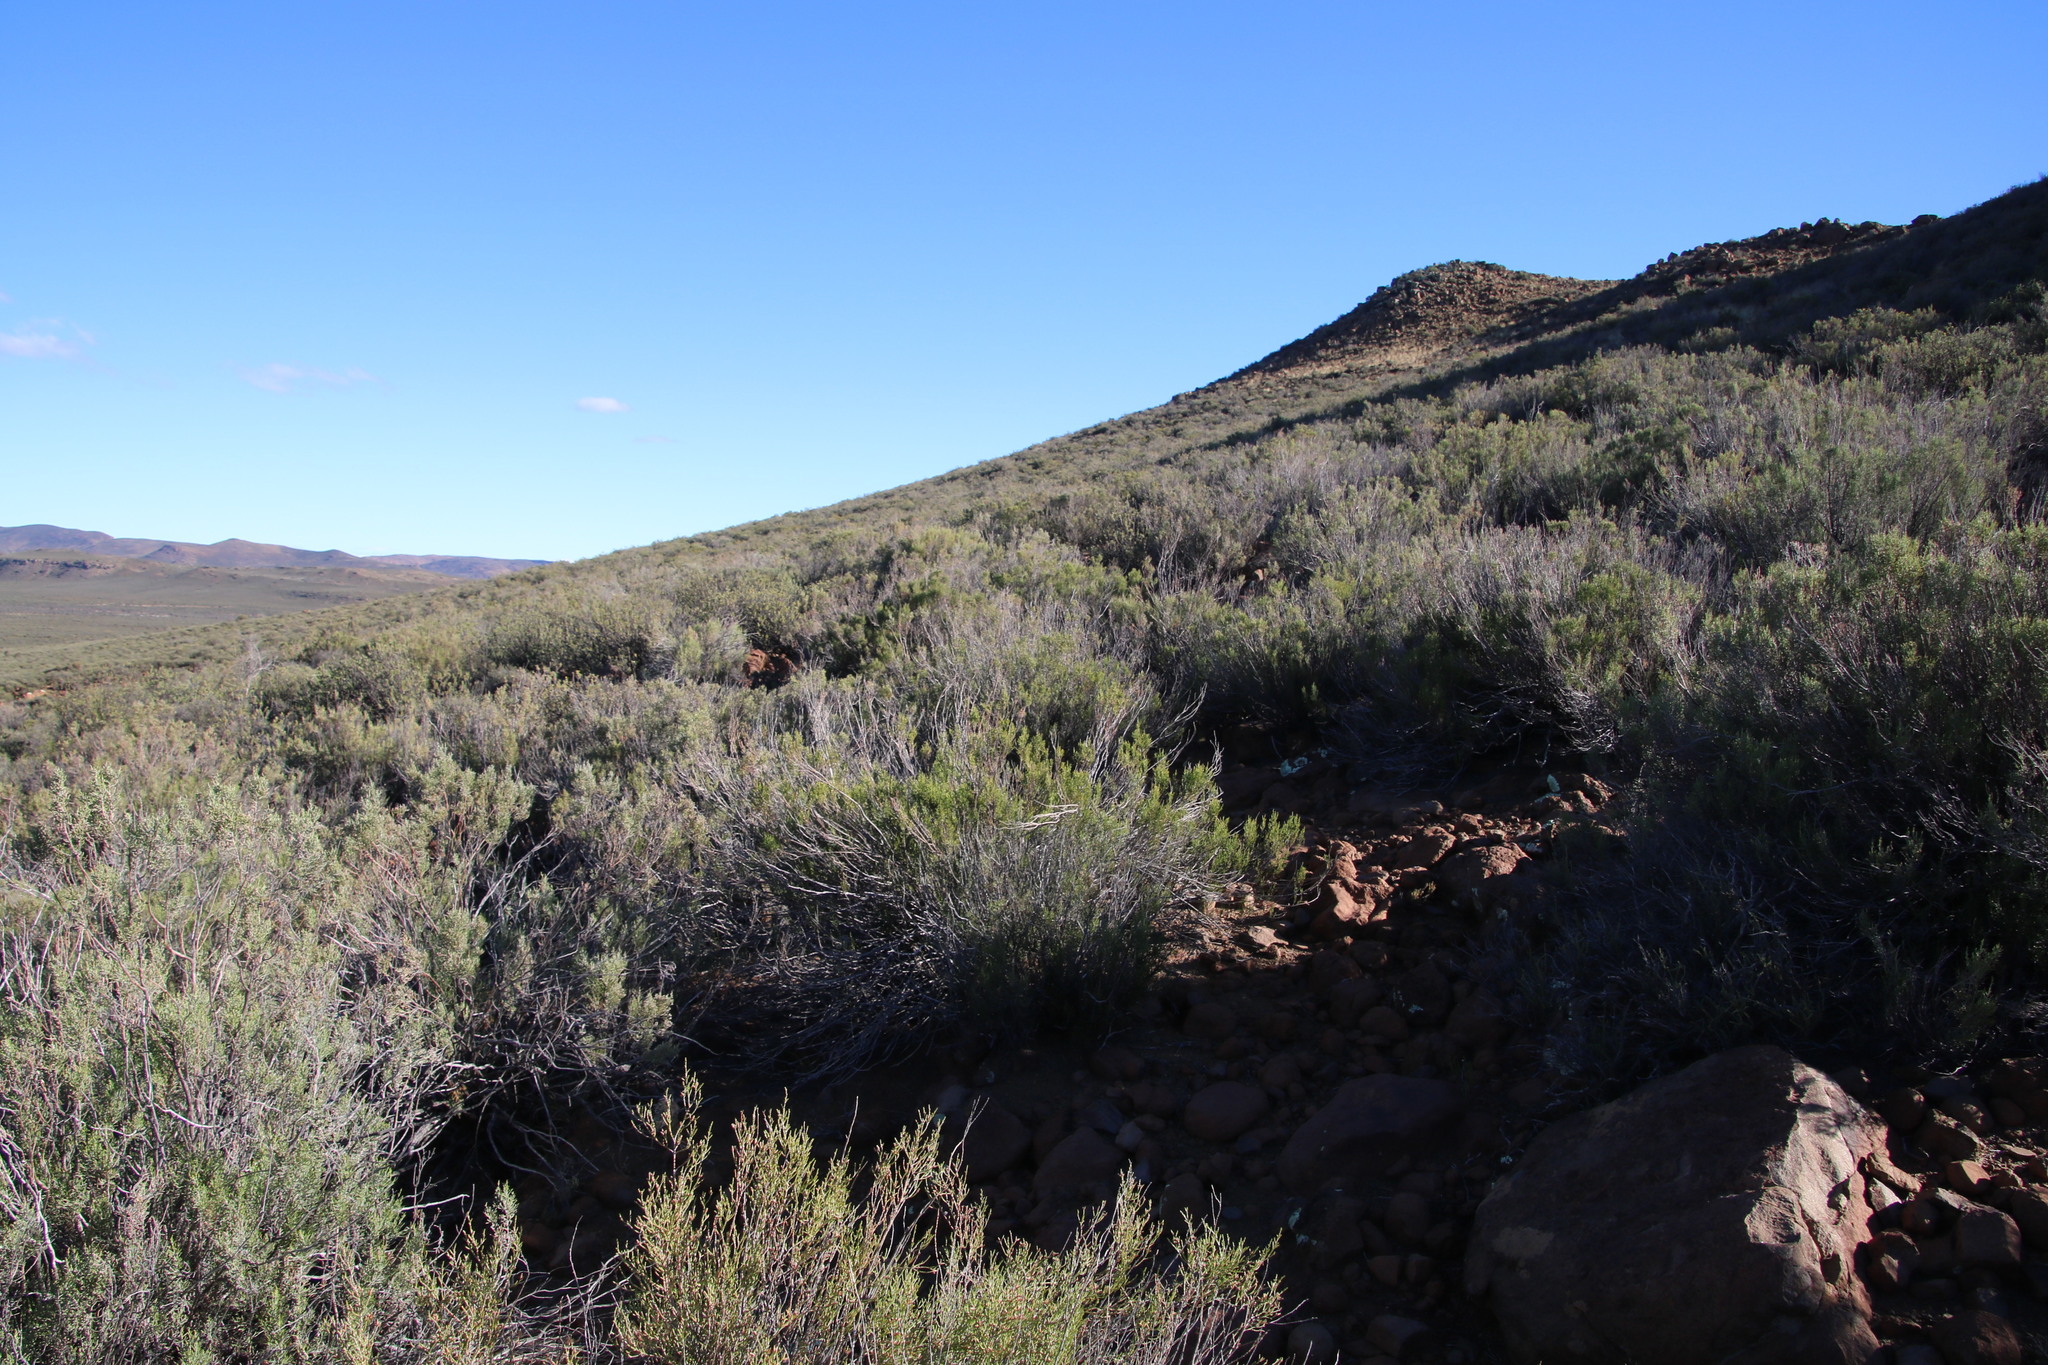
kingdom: Plantae
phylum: Tracheophyta
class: Magnoliopsida
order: Asterales
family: Asteraceae
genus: Dicerothamnus
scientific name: Dicerothamnus rhinocerotis
